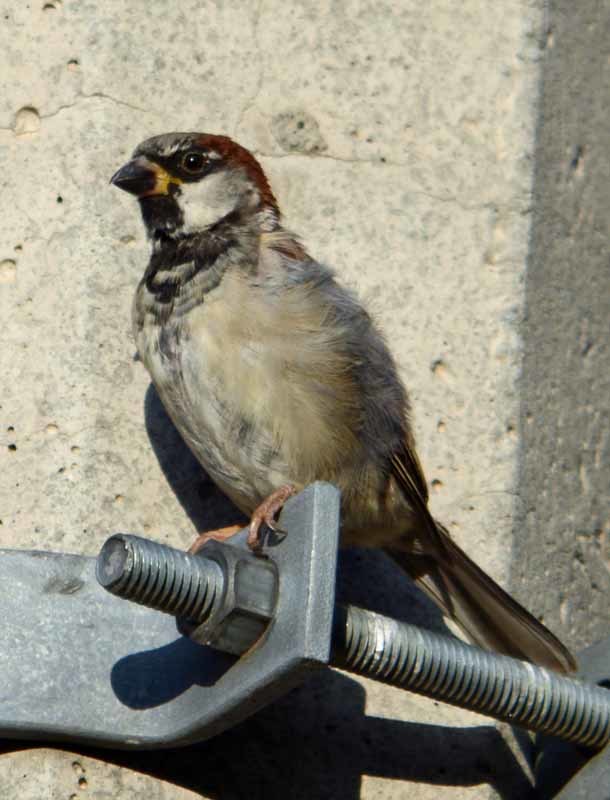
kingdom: Animalia
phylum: Chordata
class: Aves
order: Passeriformes
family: Passeridae
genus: Passer
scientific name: Passer domesticus
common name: House sparrow
